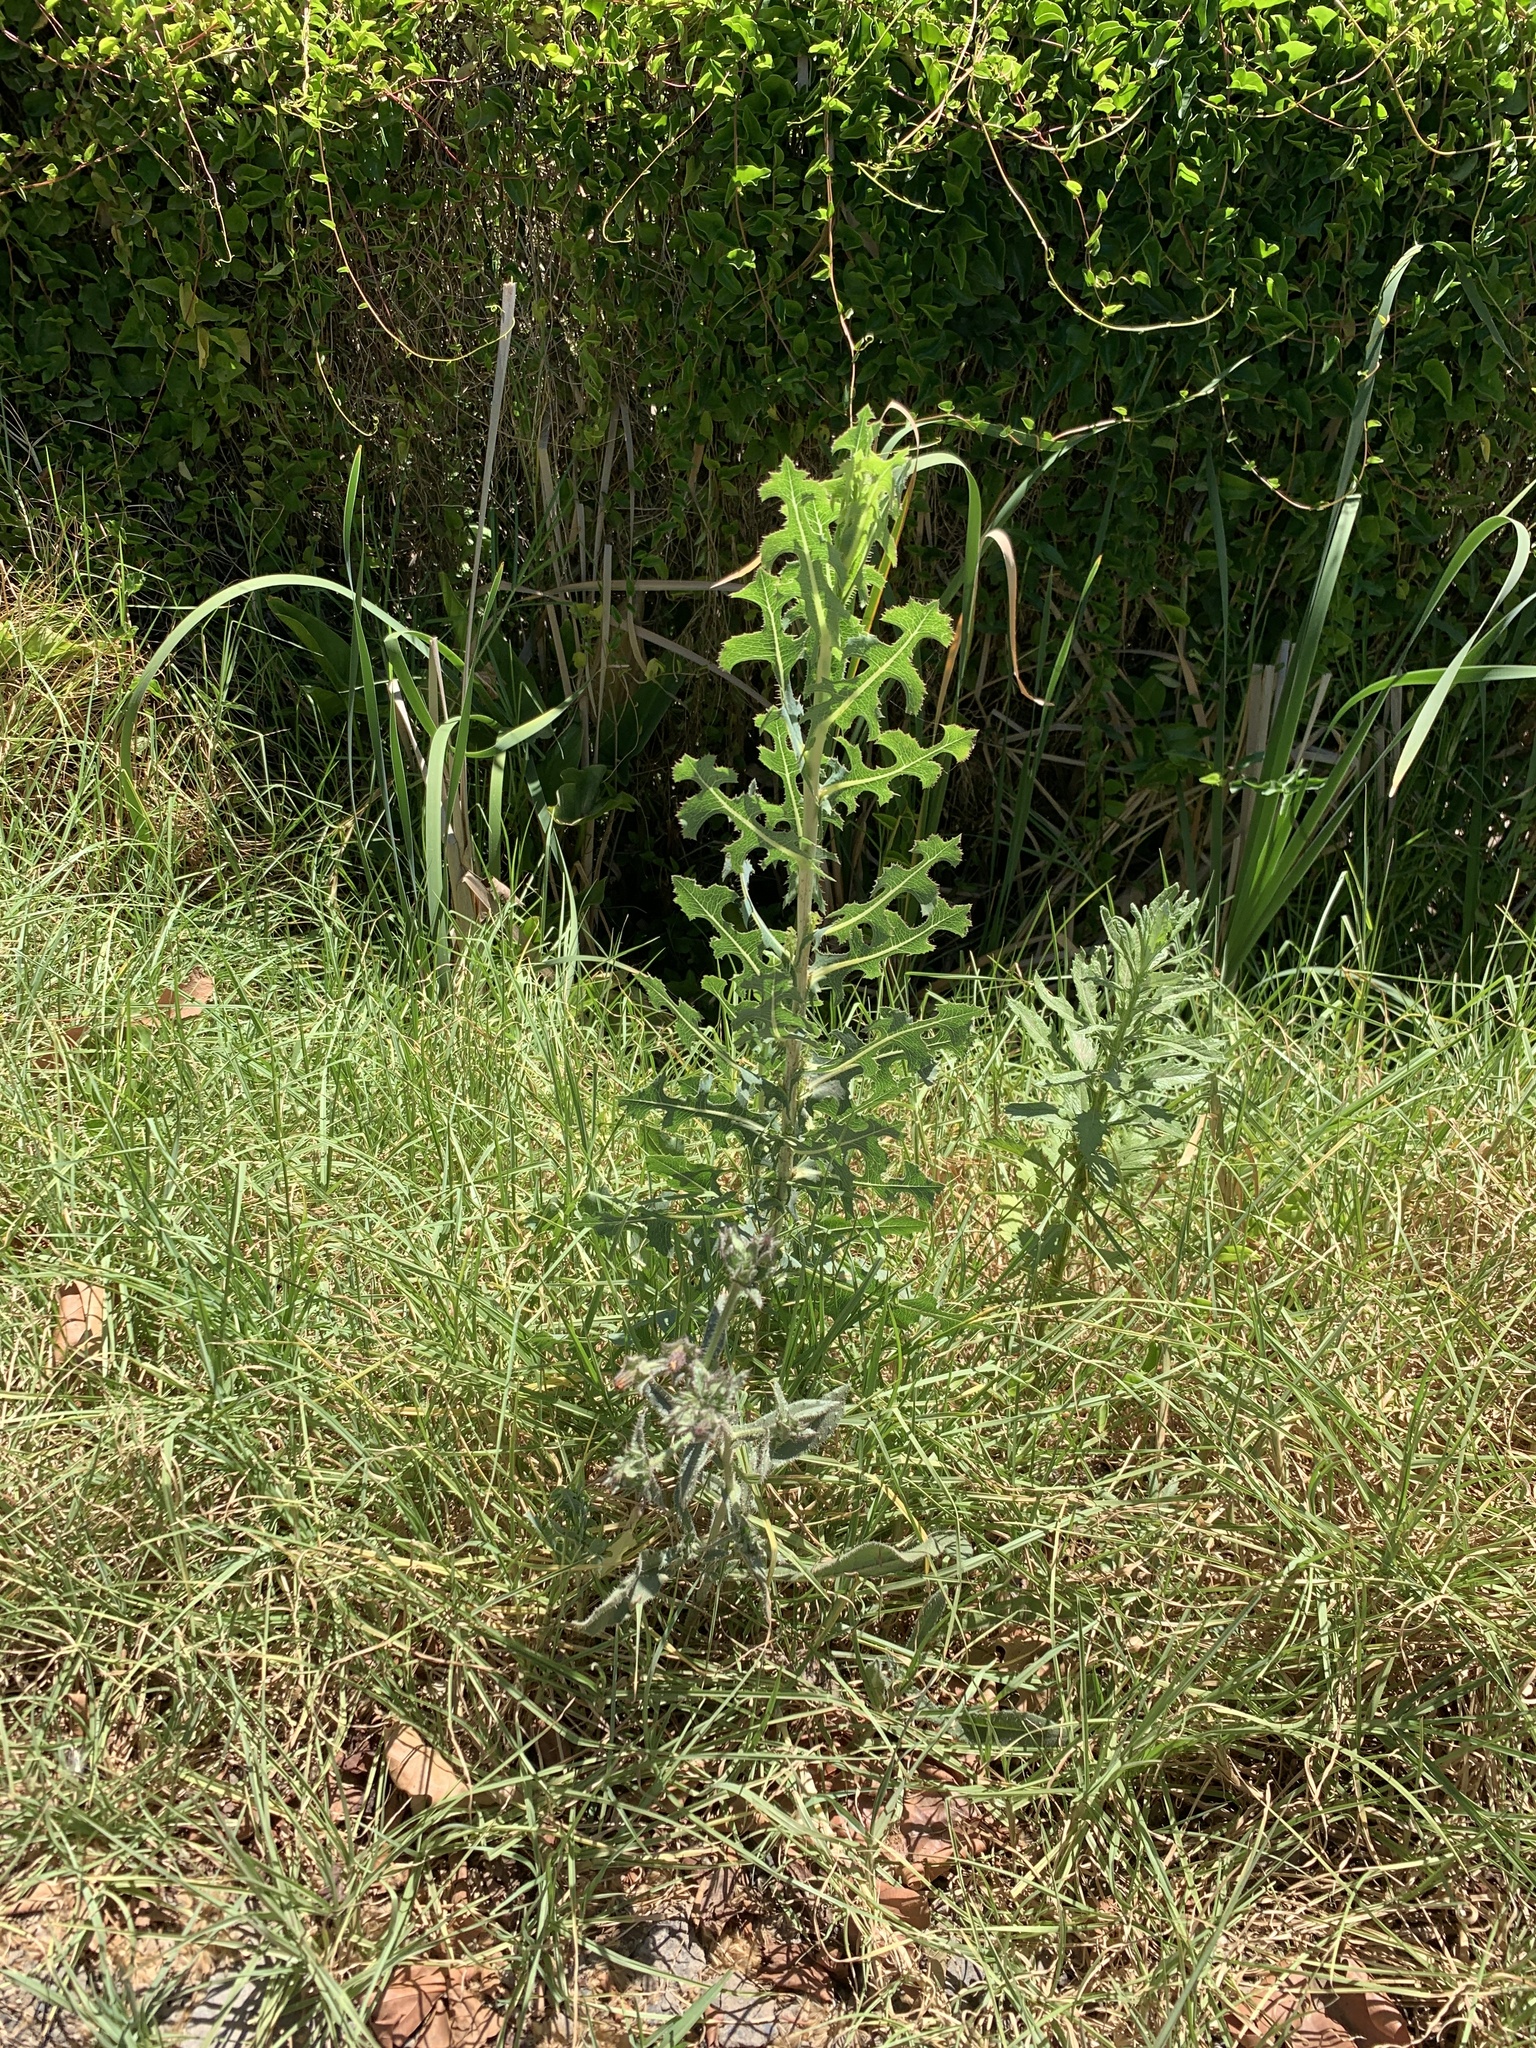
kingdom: Plantae
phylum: Tracheophyta
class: Magnoliopsida
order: Asterales
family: Asteraceae
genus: Lactuca
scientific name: Lactuca serriola
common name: Prickly lettuce
